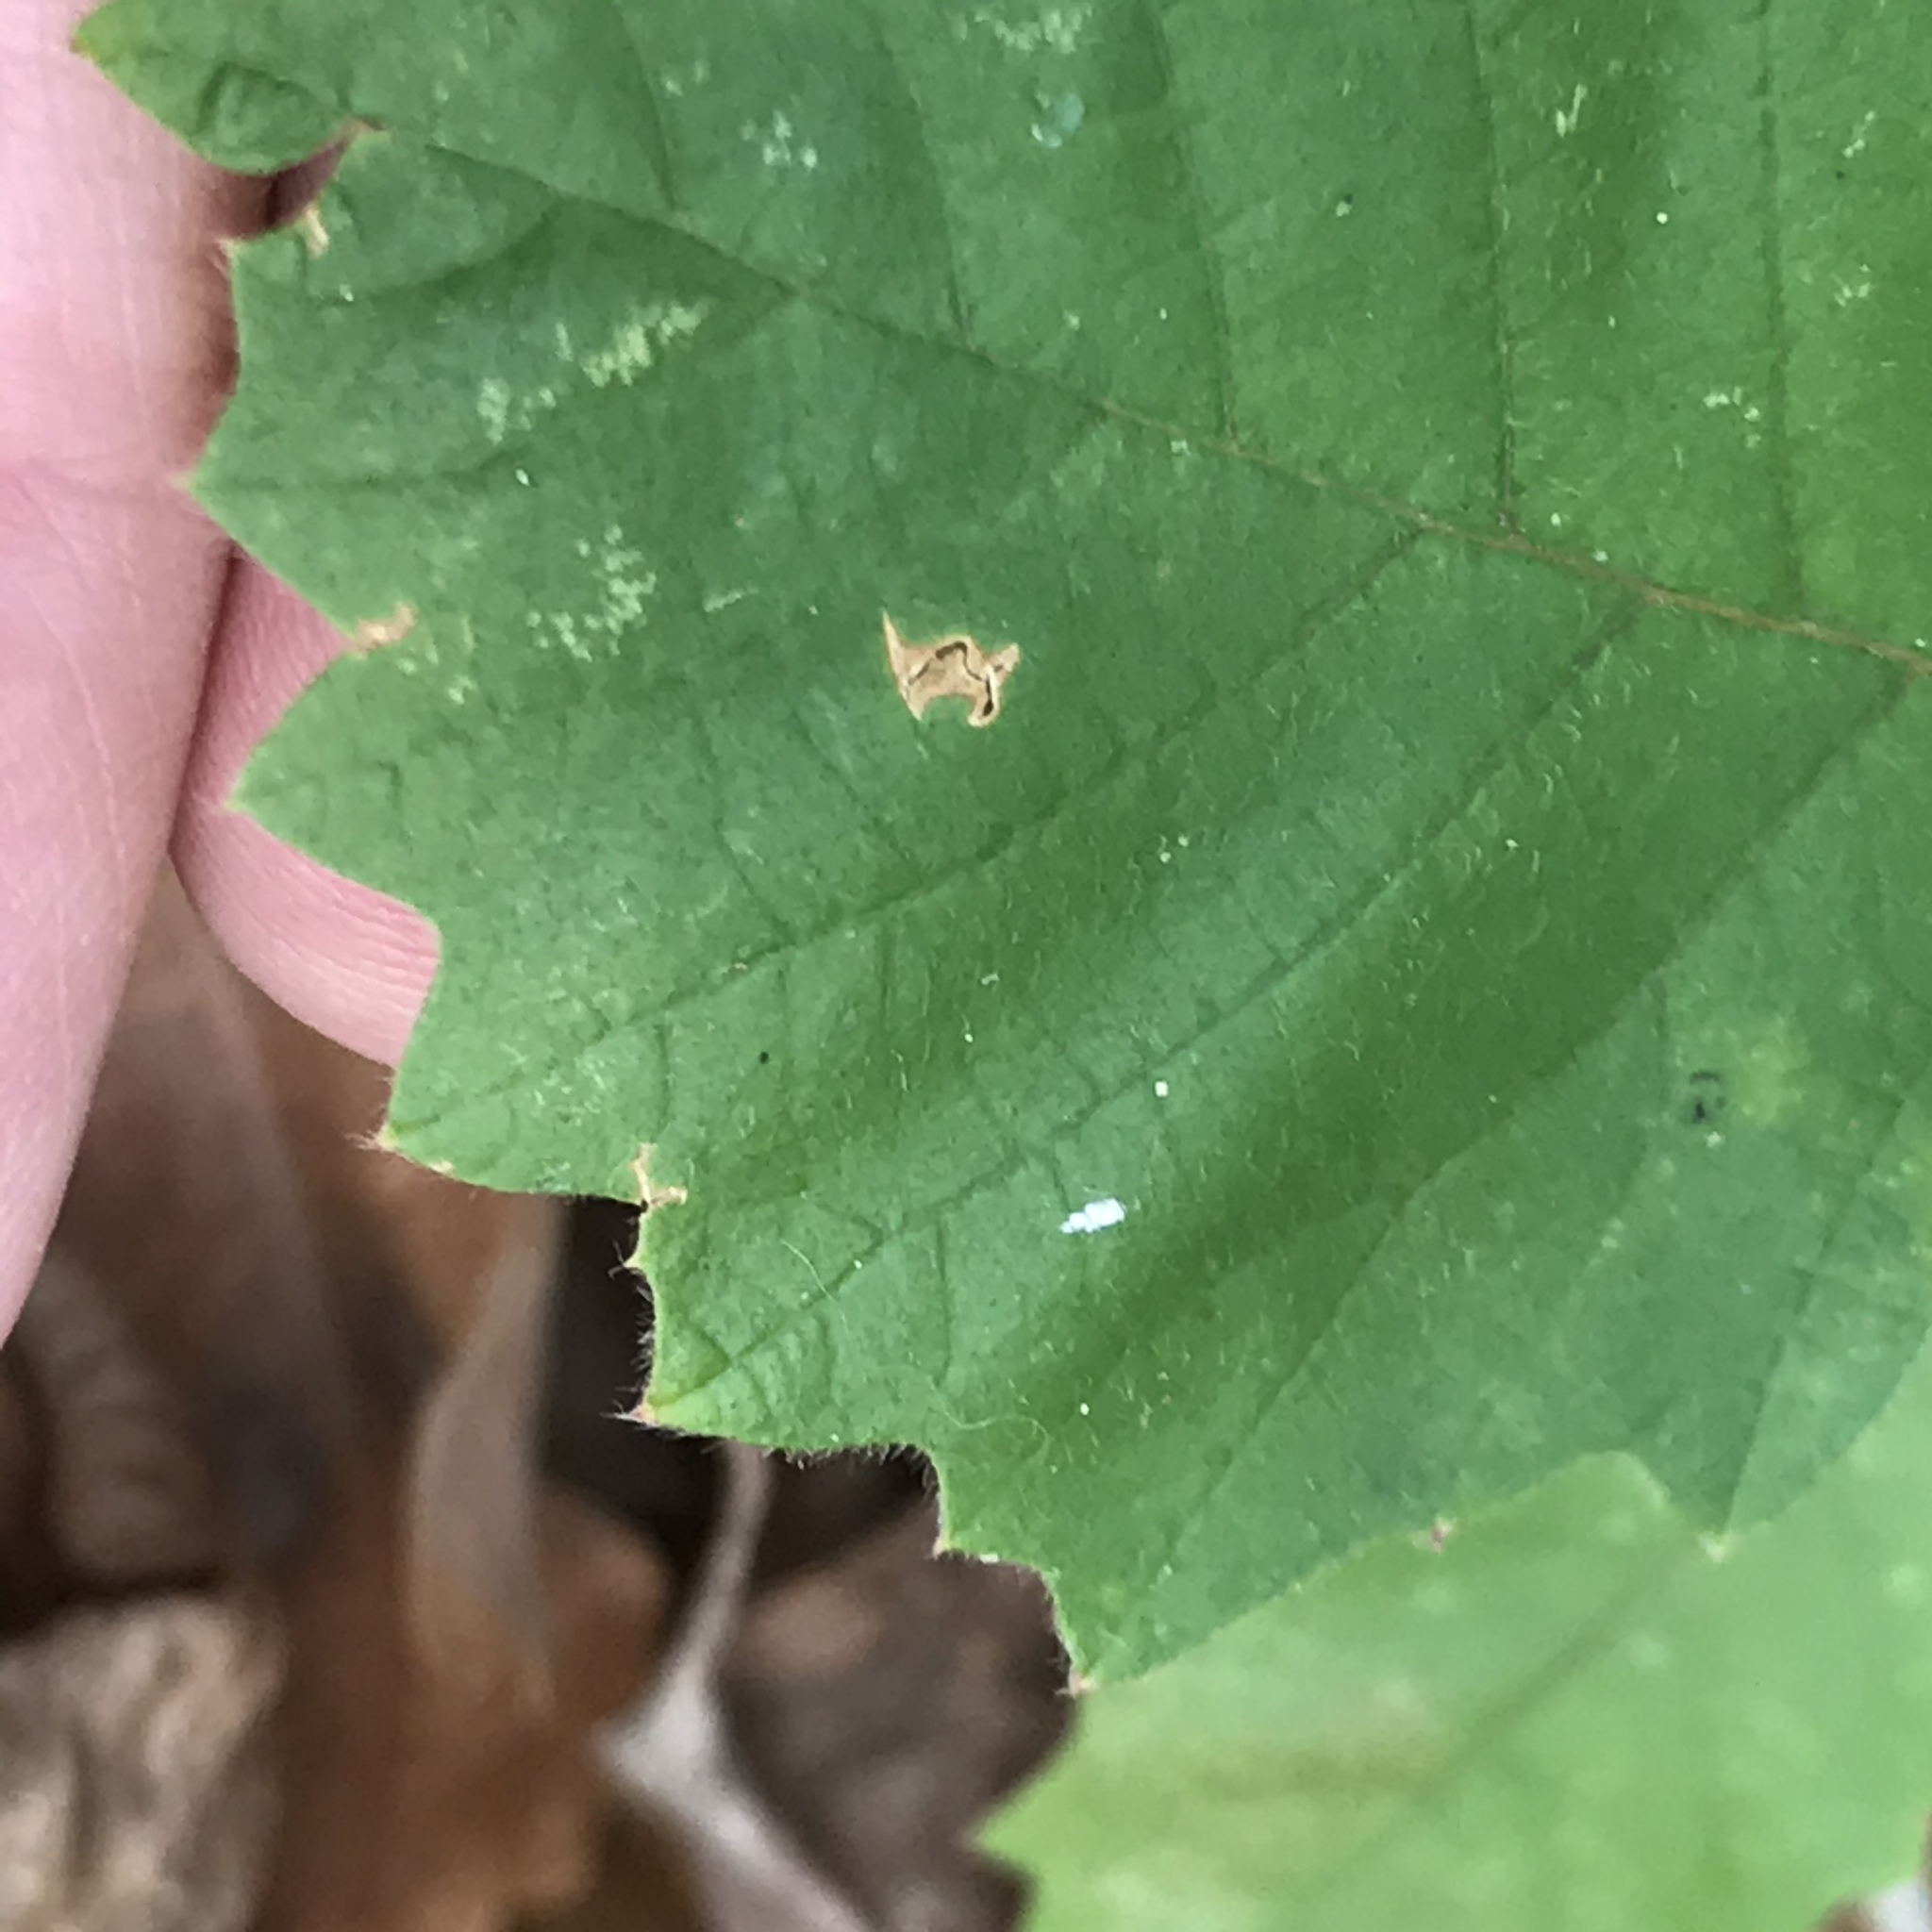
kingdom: Plantae
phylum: Tracheophyta
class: Magnoliopsida
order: Fagales
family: Fagaceae
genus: Quercus
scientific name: Quercus michauxii
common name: Swamp chestnut oak
